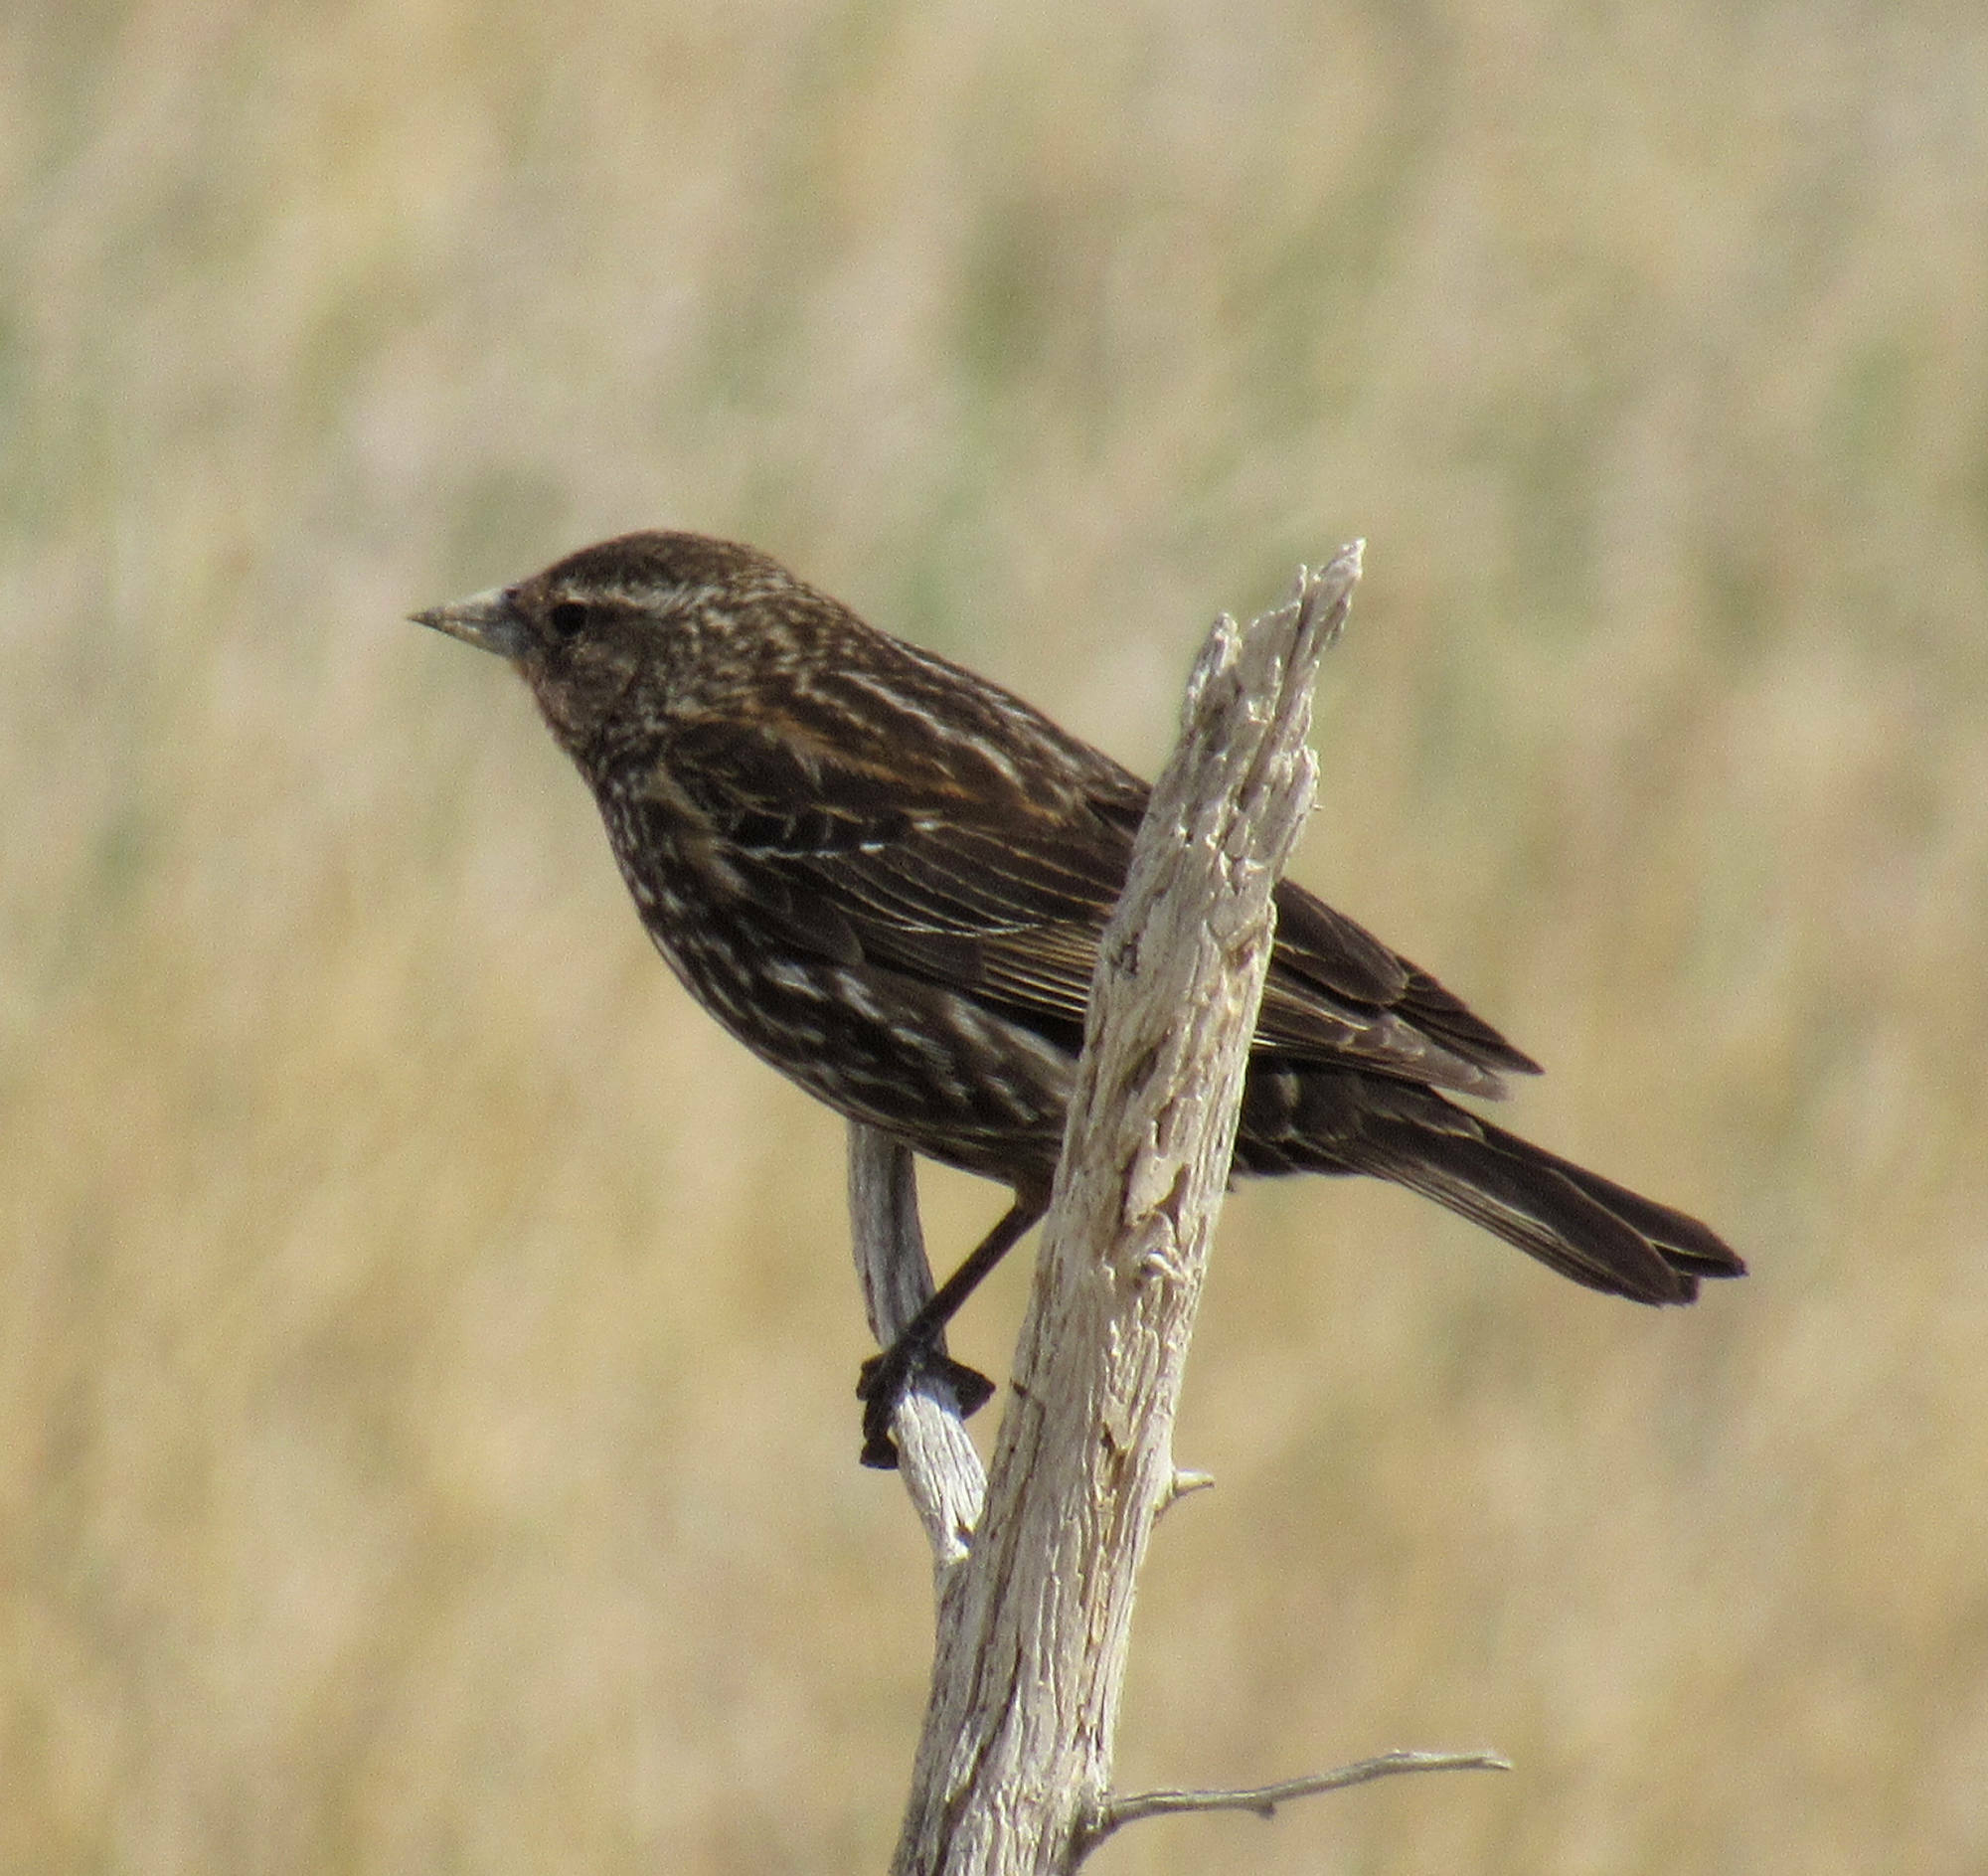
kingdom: Animalia
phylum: Chordata
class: Aves
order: Passeriformes
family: Icteridae
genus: Agelaius
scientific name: Agelaius phoeniceus
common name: Red-winged blackbird
